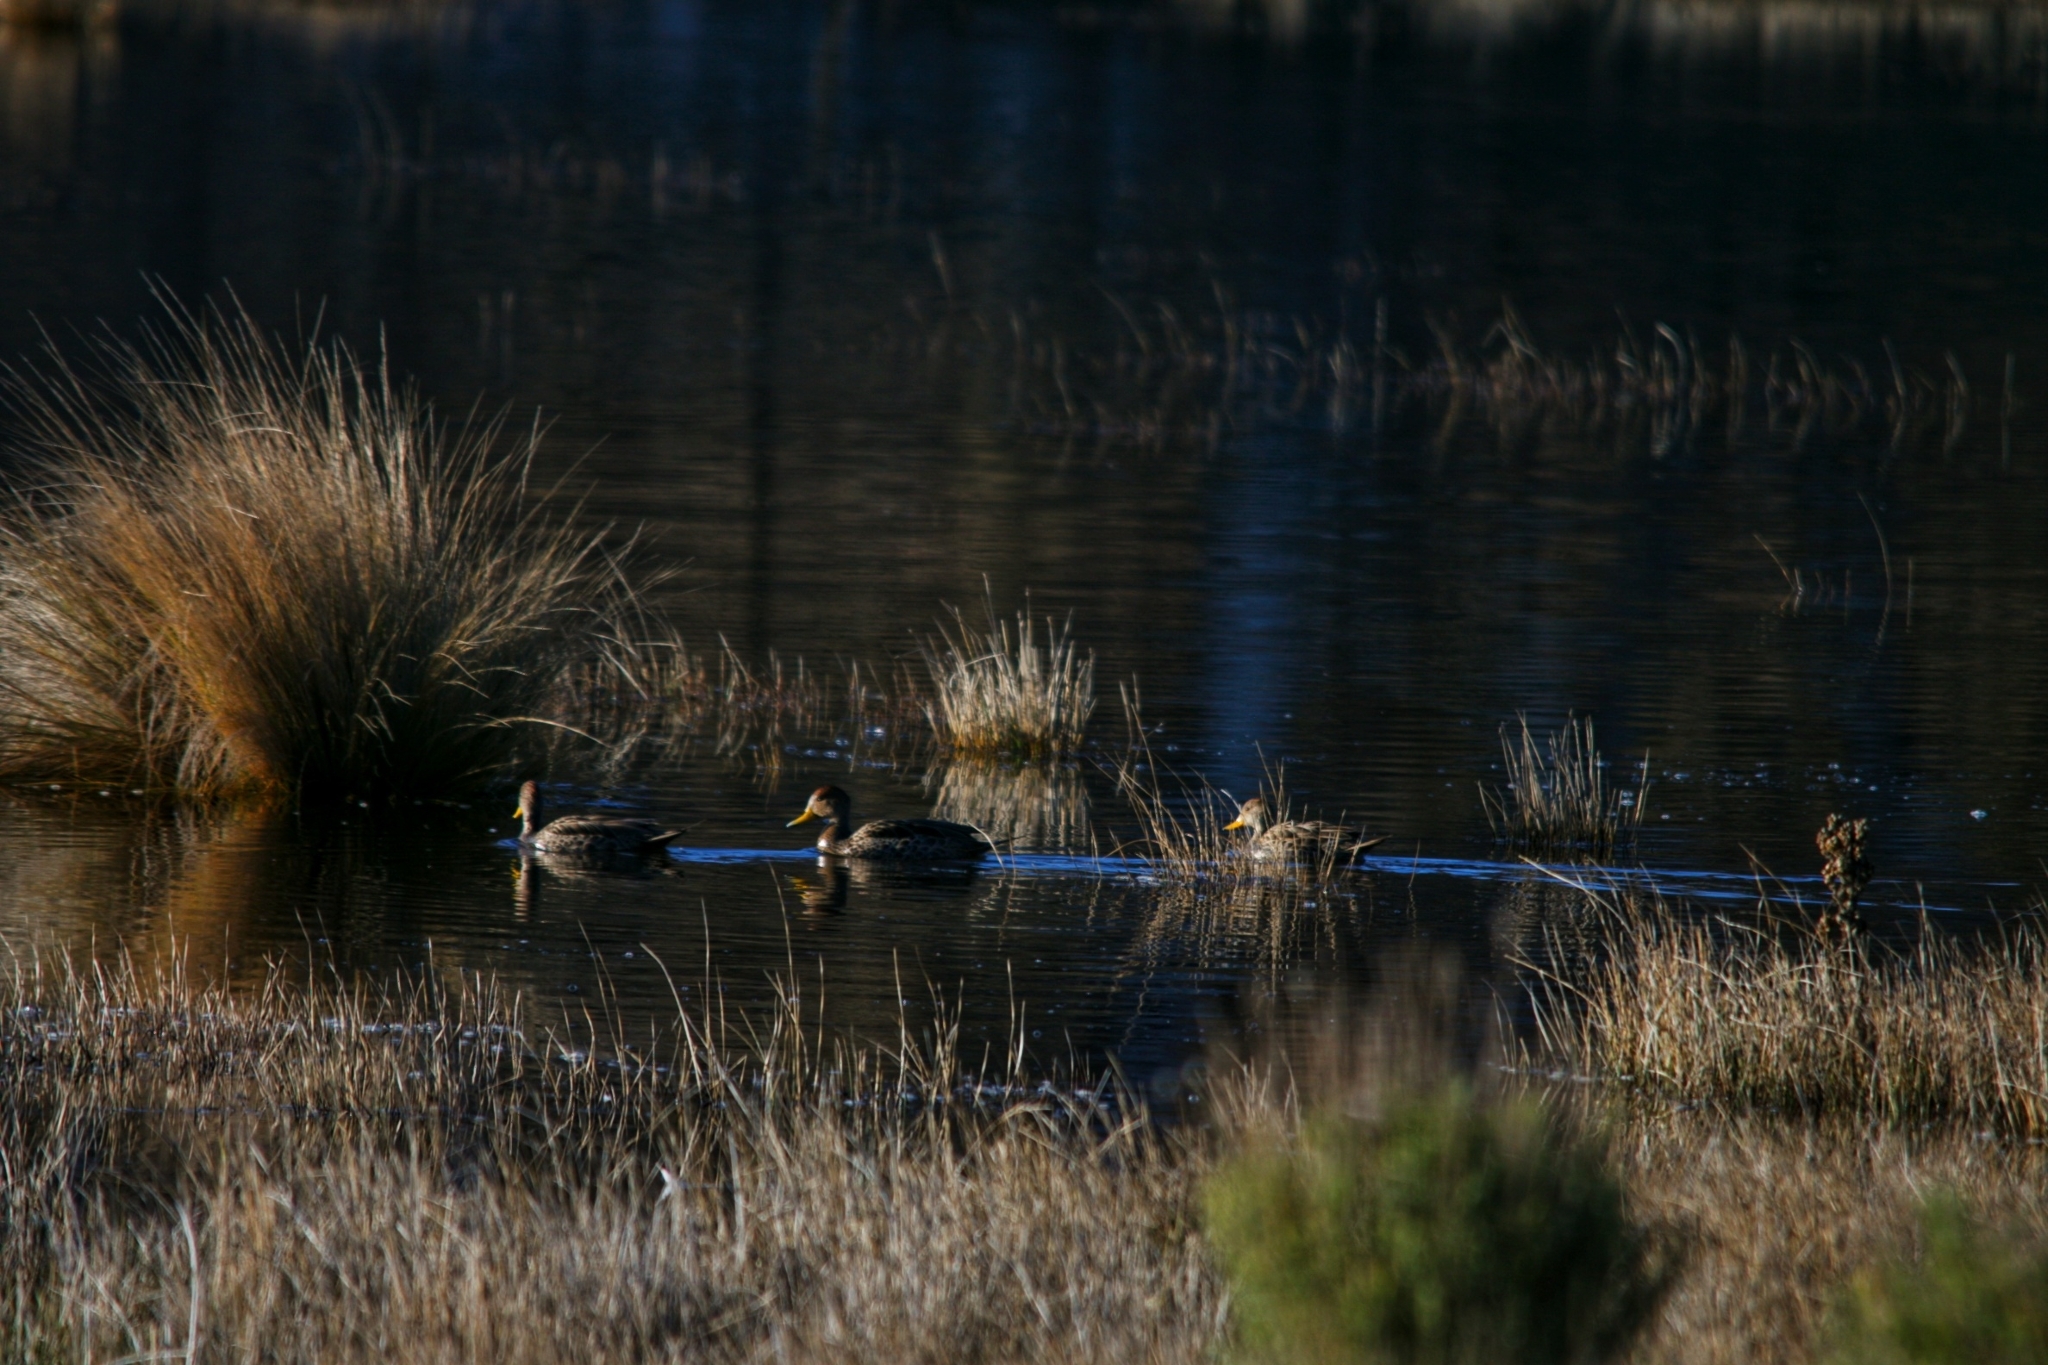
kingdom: Animalia
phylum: Chordata
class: Aves
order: Anseriformes
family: Anatidae
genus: Anas
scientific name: Anas georgica
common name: Yellow-billed pintail
